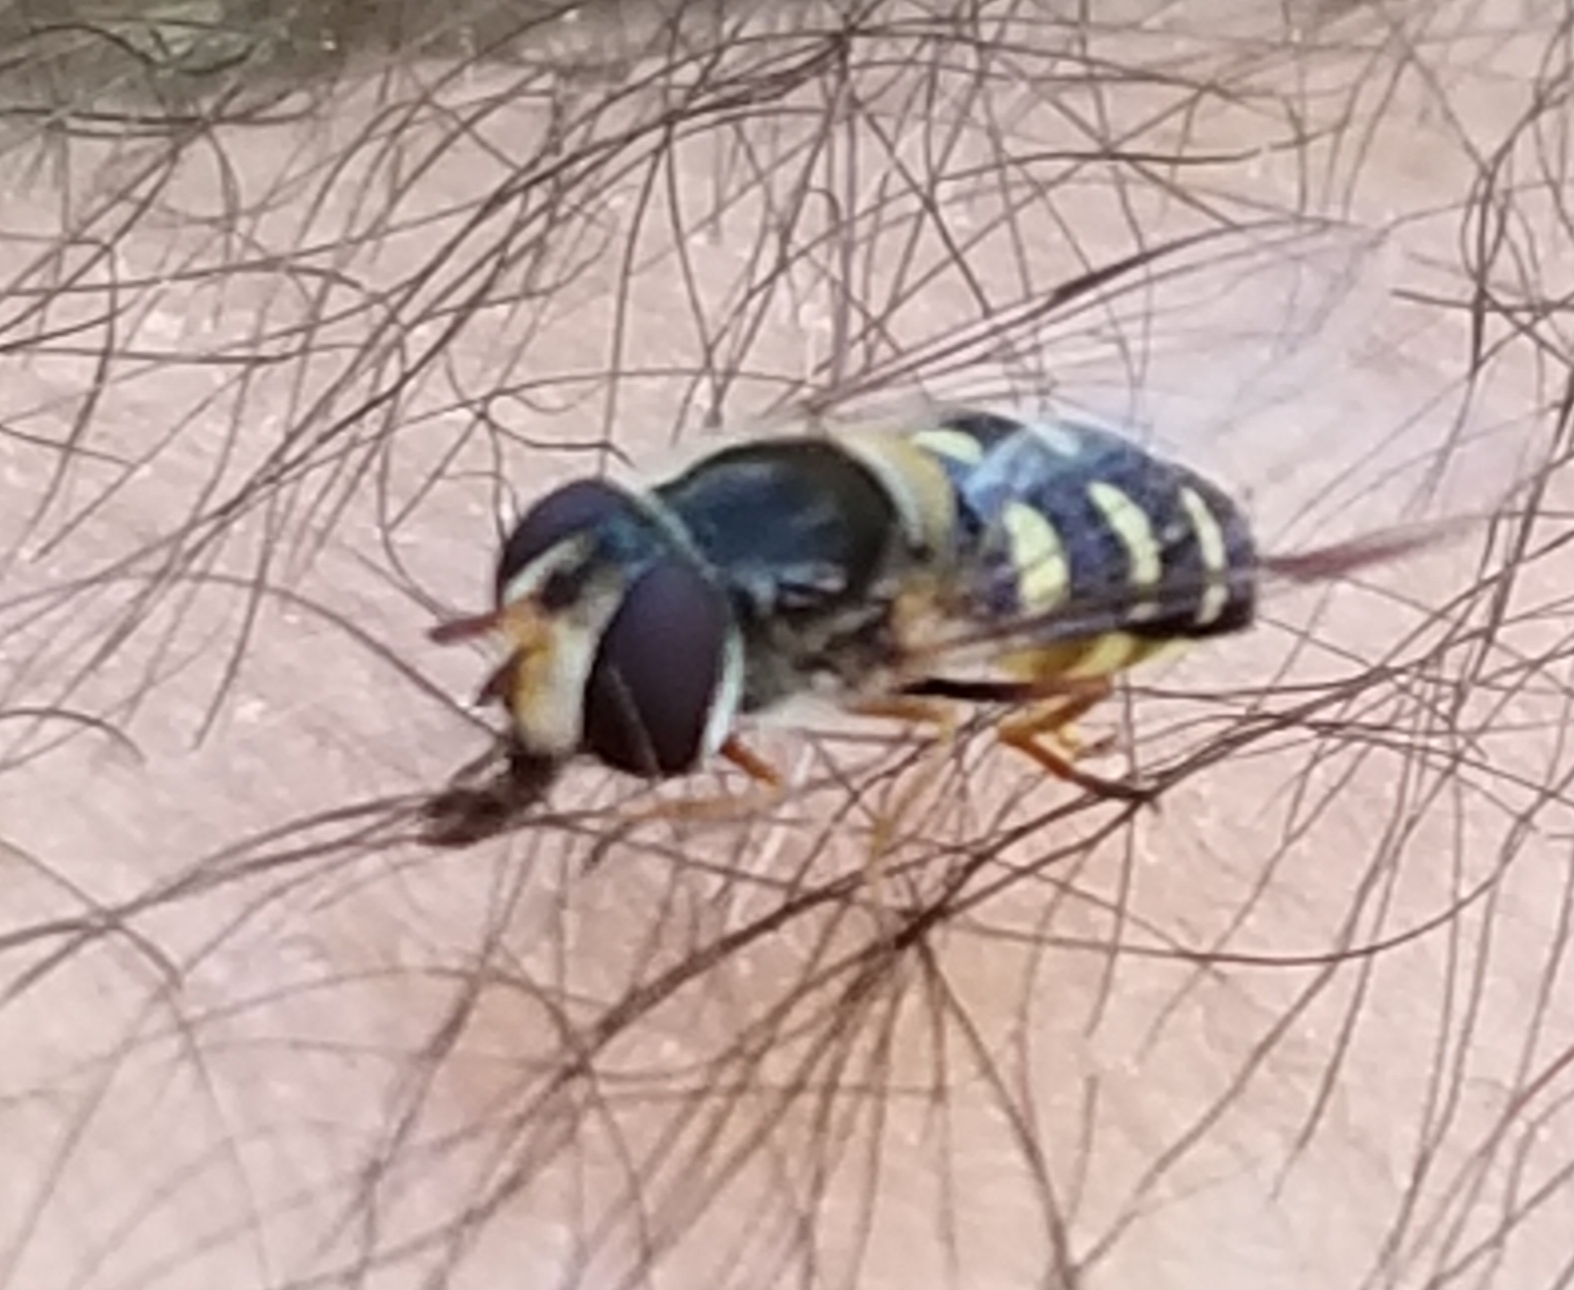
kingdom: Animalia
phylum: Arthropoda
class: Insecta
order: Diptera
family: Syrphidae
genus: Lapposyrphus
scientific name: Lapposyrphus lapponicus
